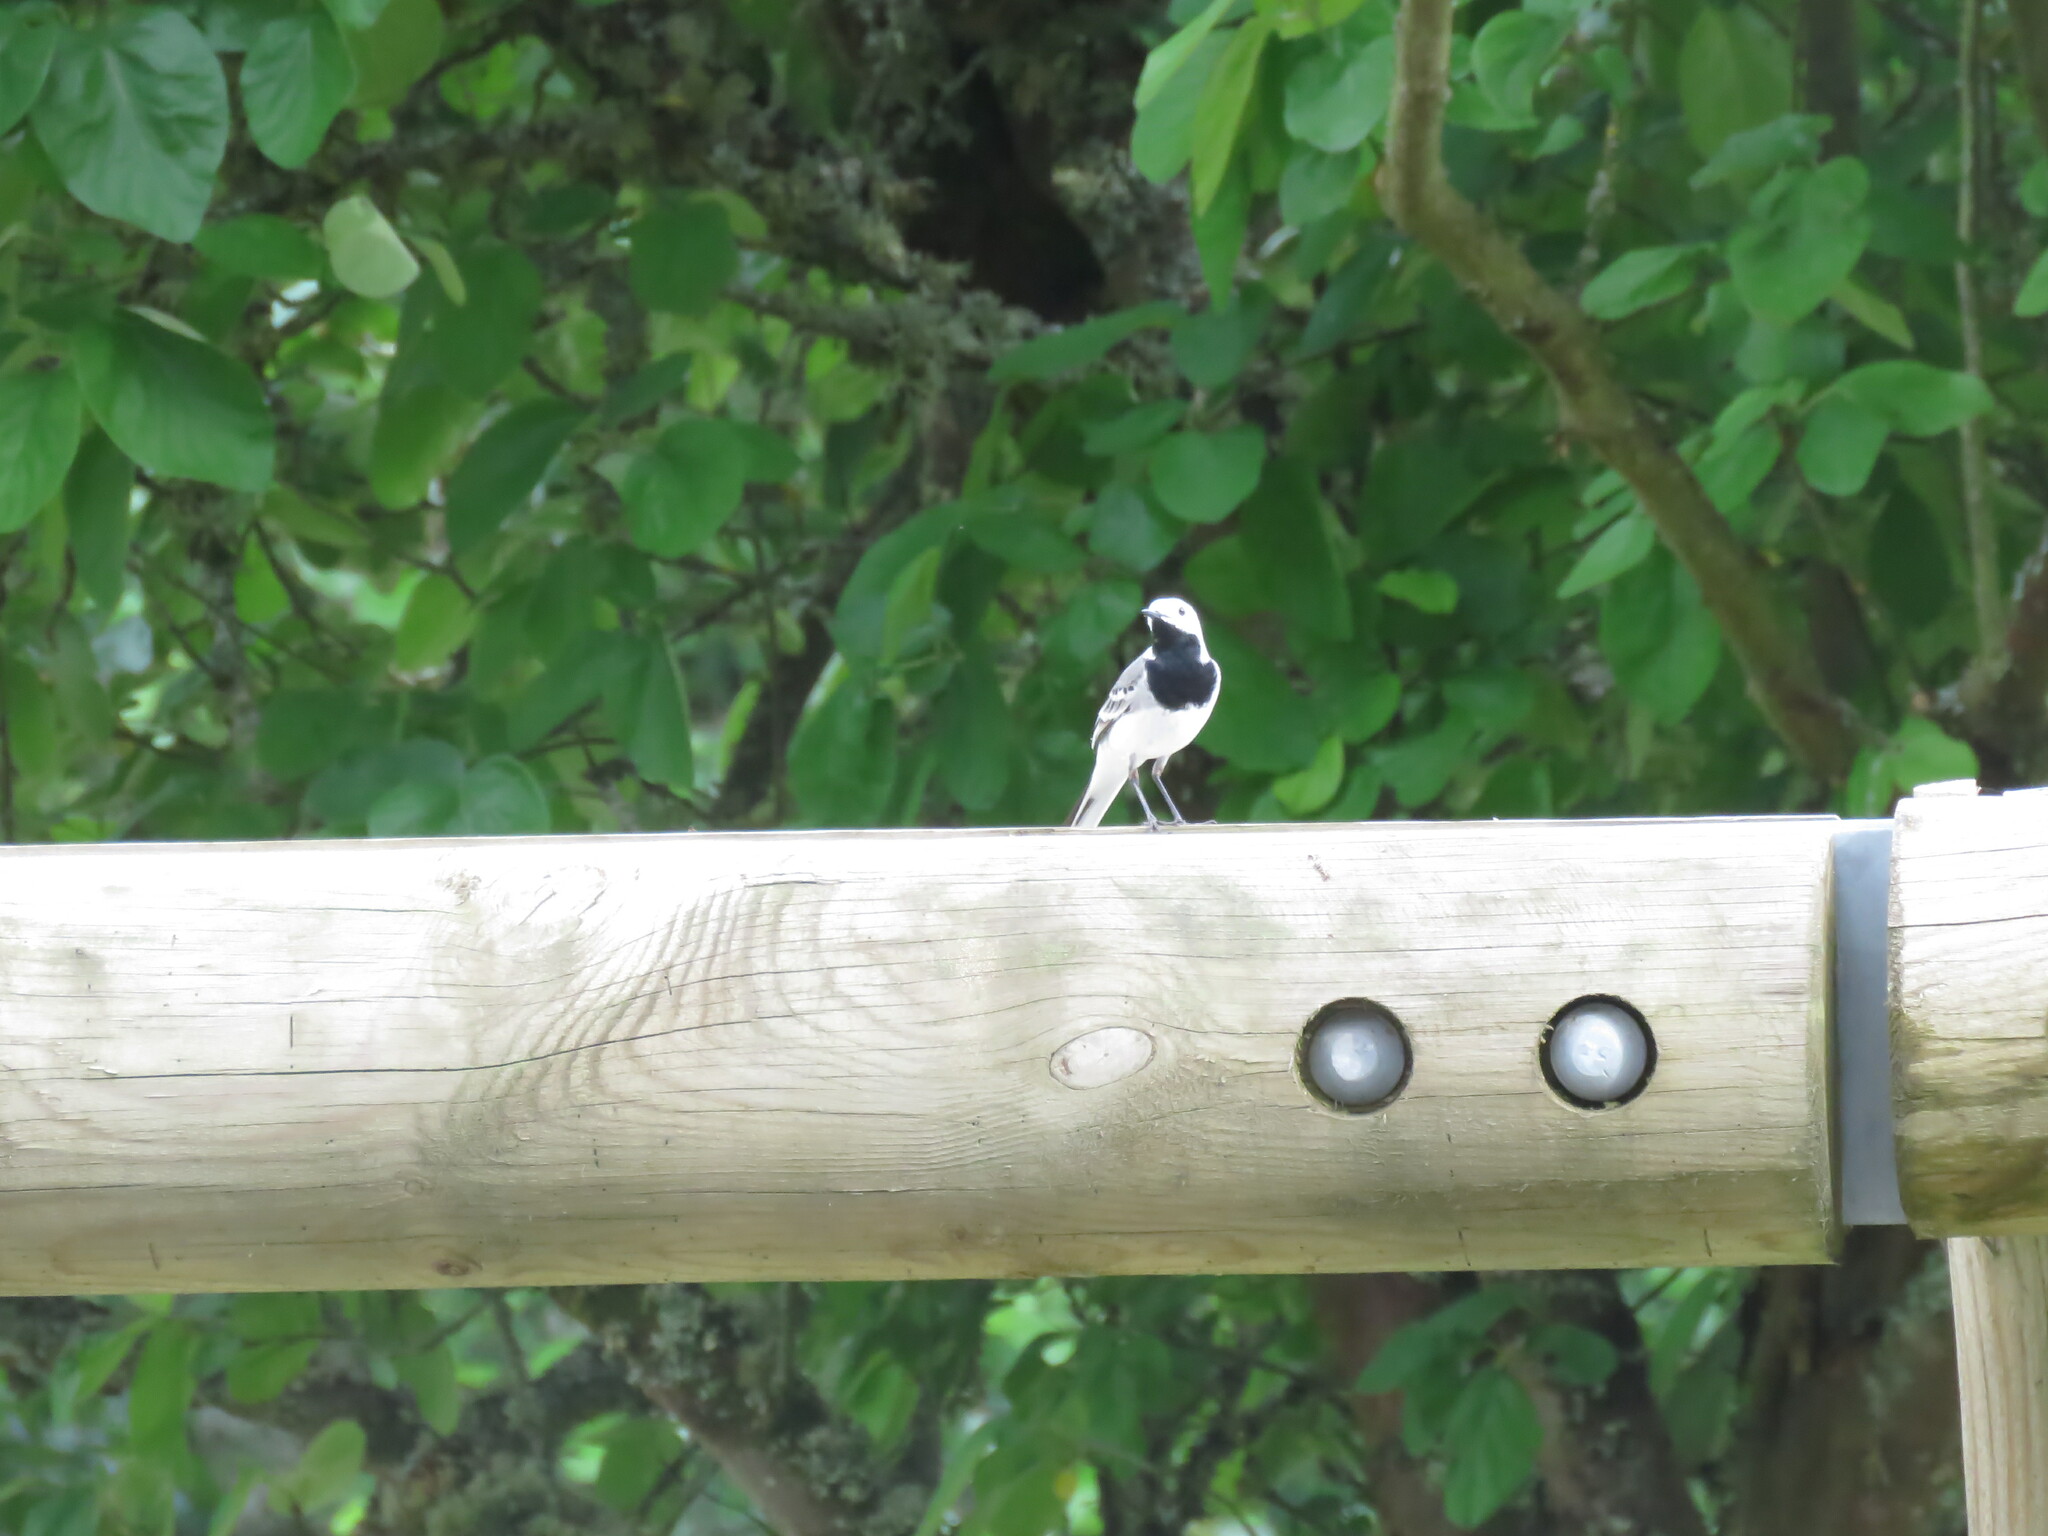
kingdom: Animalia
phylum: Chordata
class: Aves
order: Passeriformes
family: Motacillidae
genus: Motacilla
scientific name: Motacilla alba
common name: White wagtail
